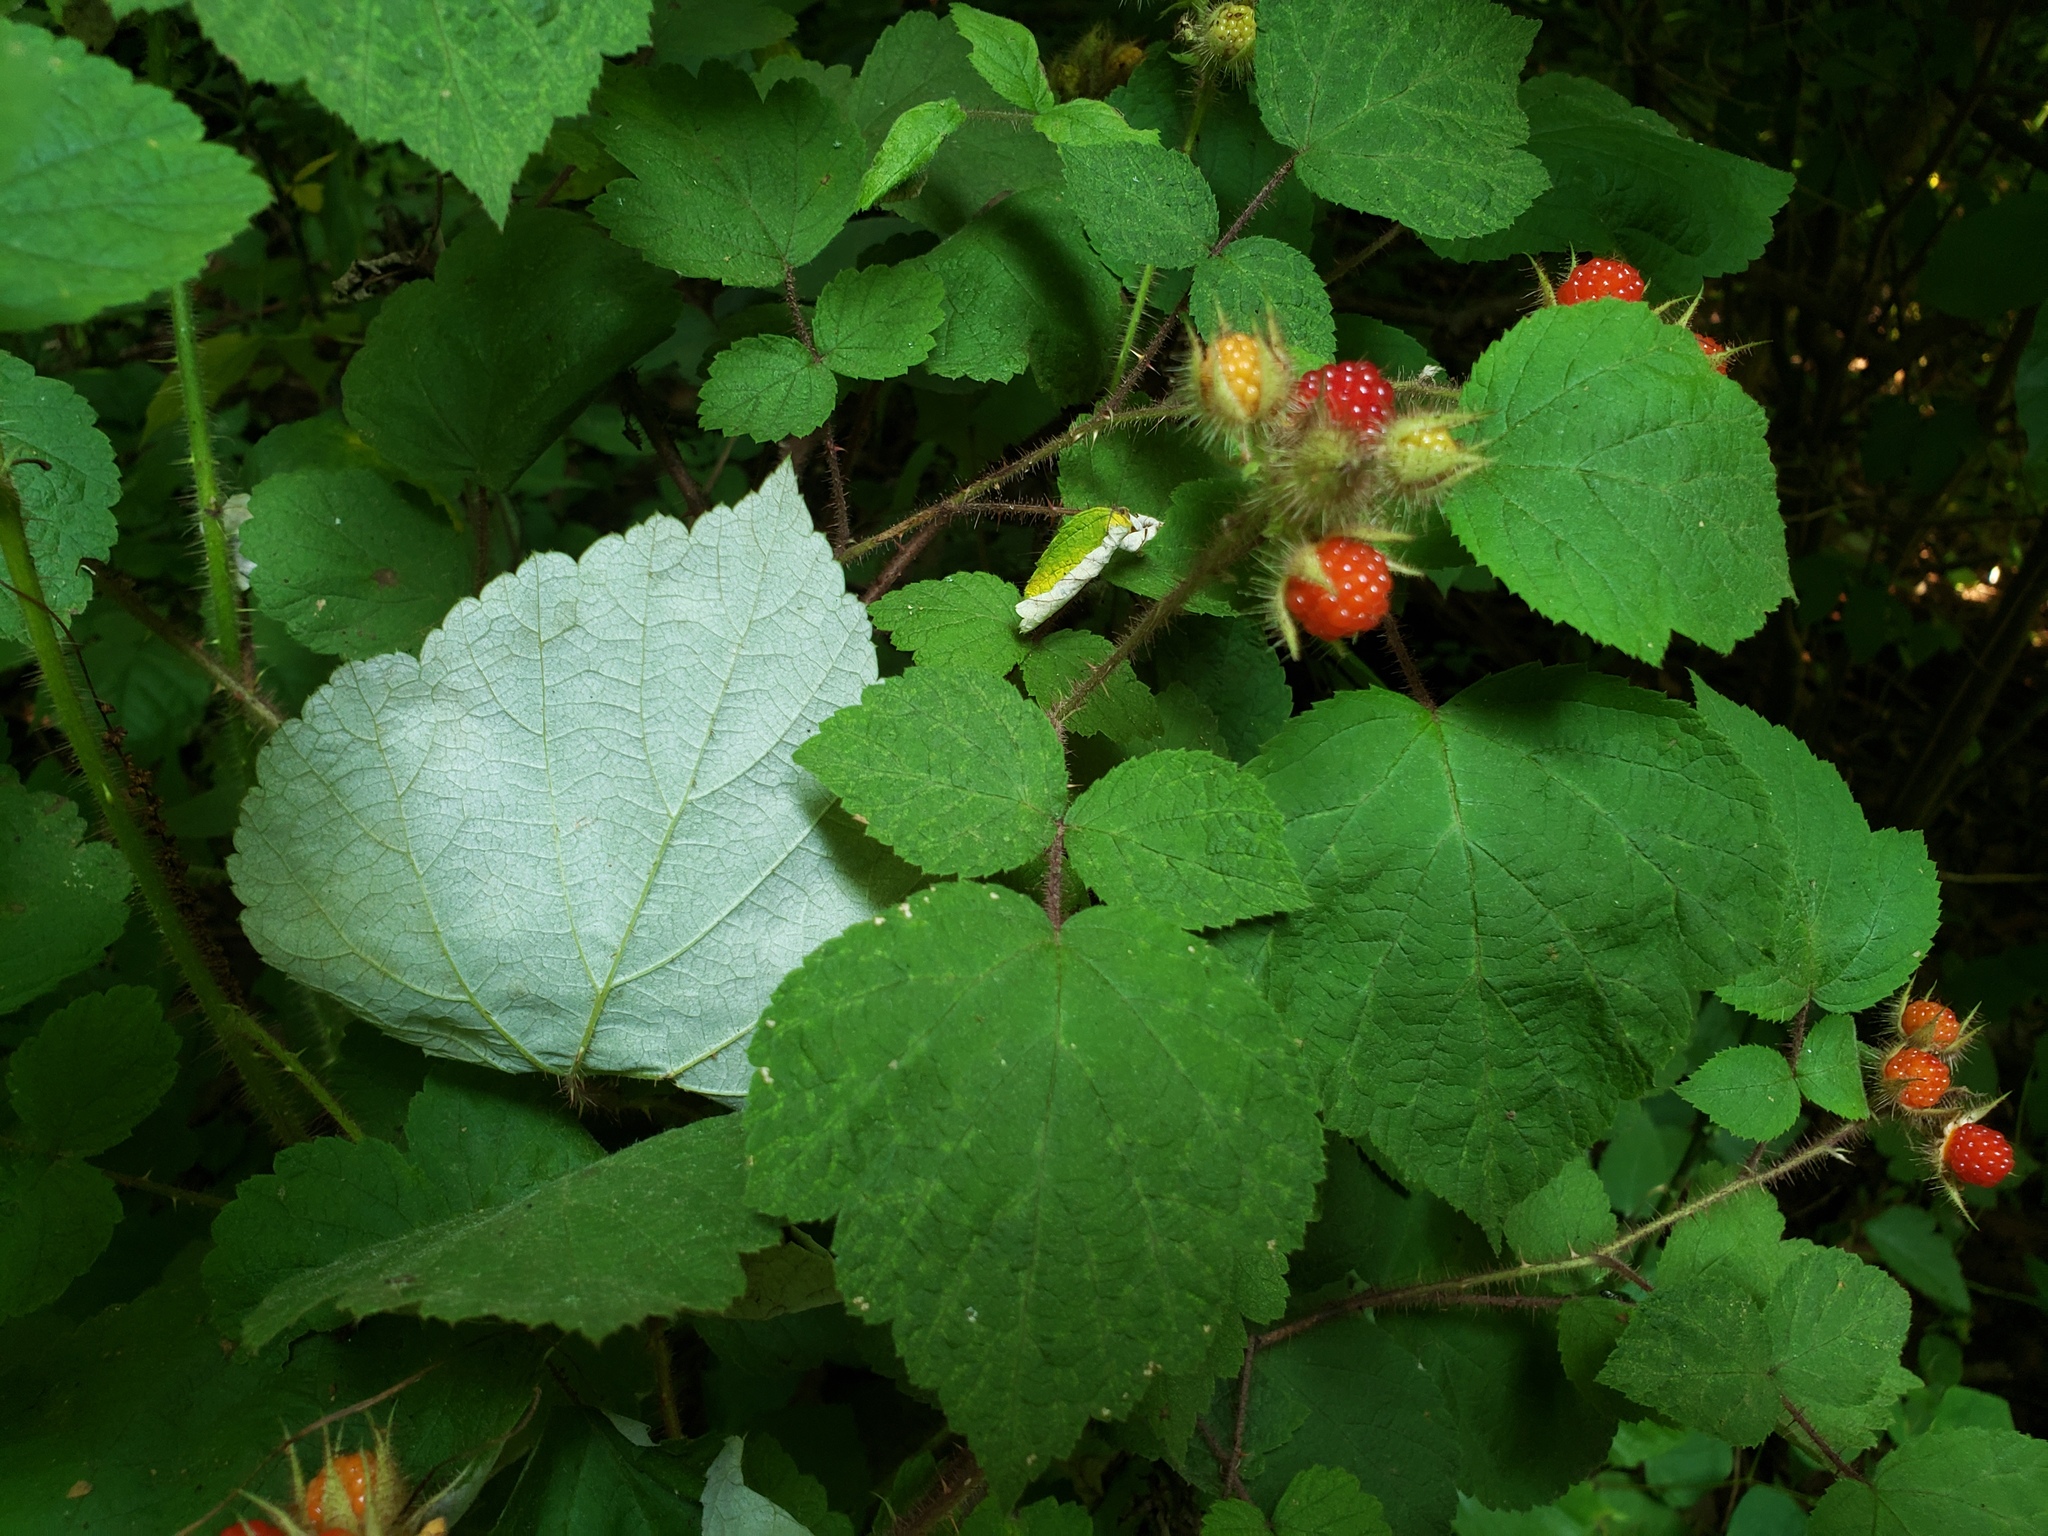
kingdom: Plantae
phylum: Tracheophyta
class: Magnoliopsida
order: Rosales
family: Rosaceae
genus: Rubus
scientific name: Rubus phoenicolasius
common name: Japanese wineberry
